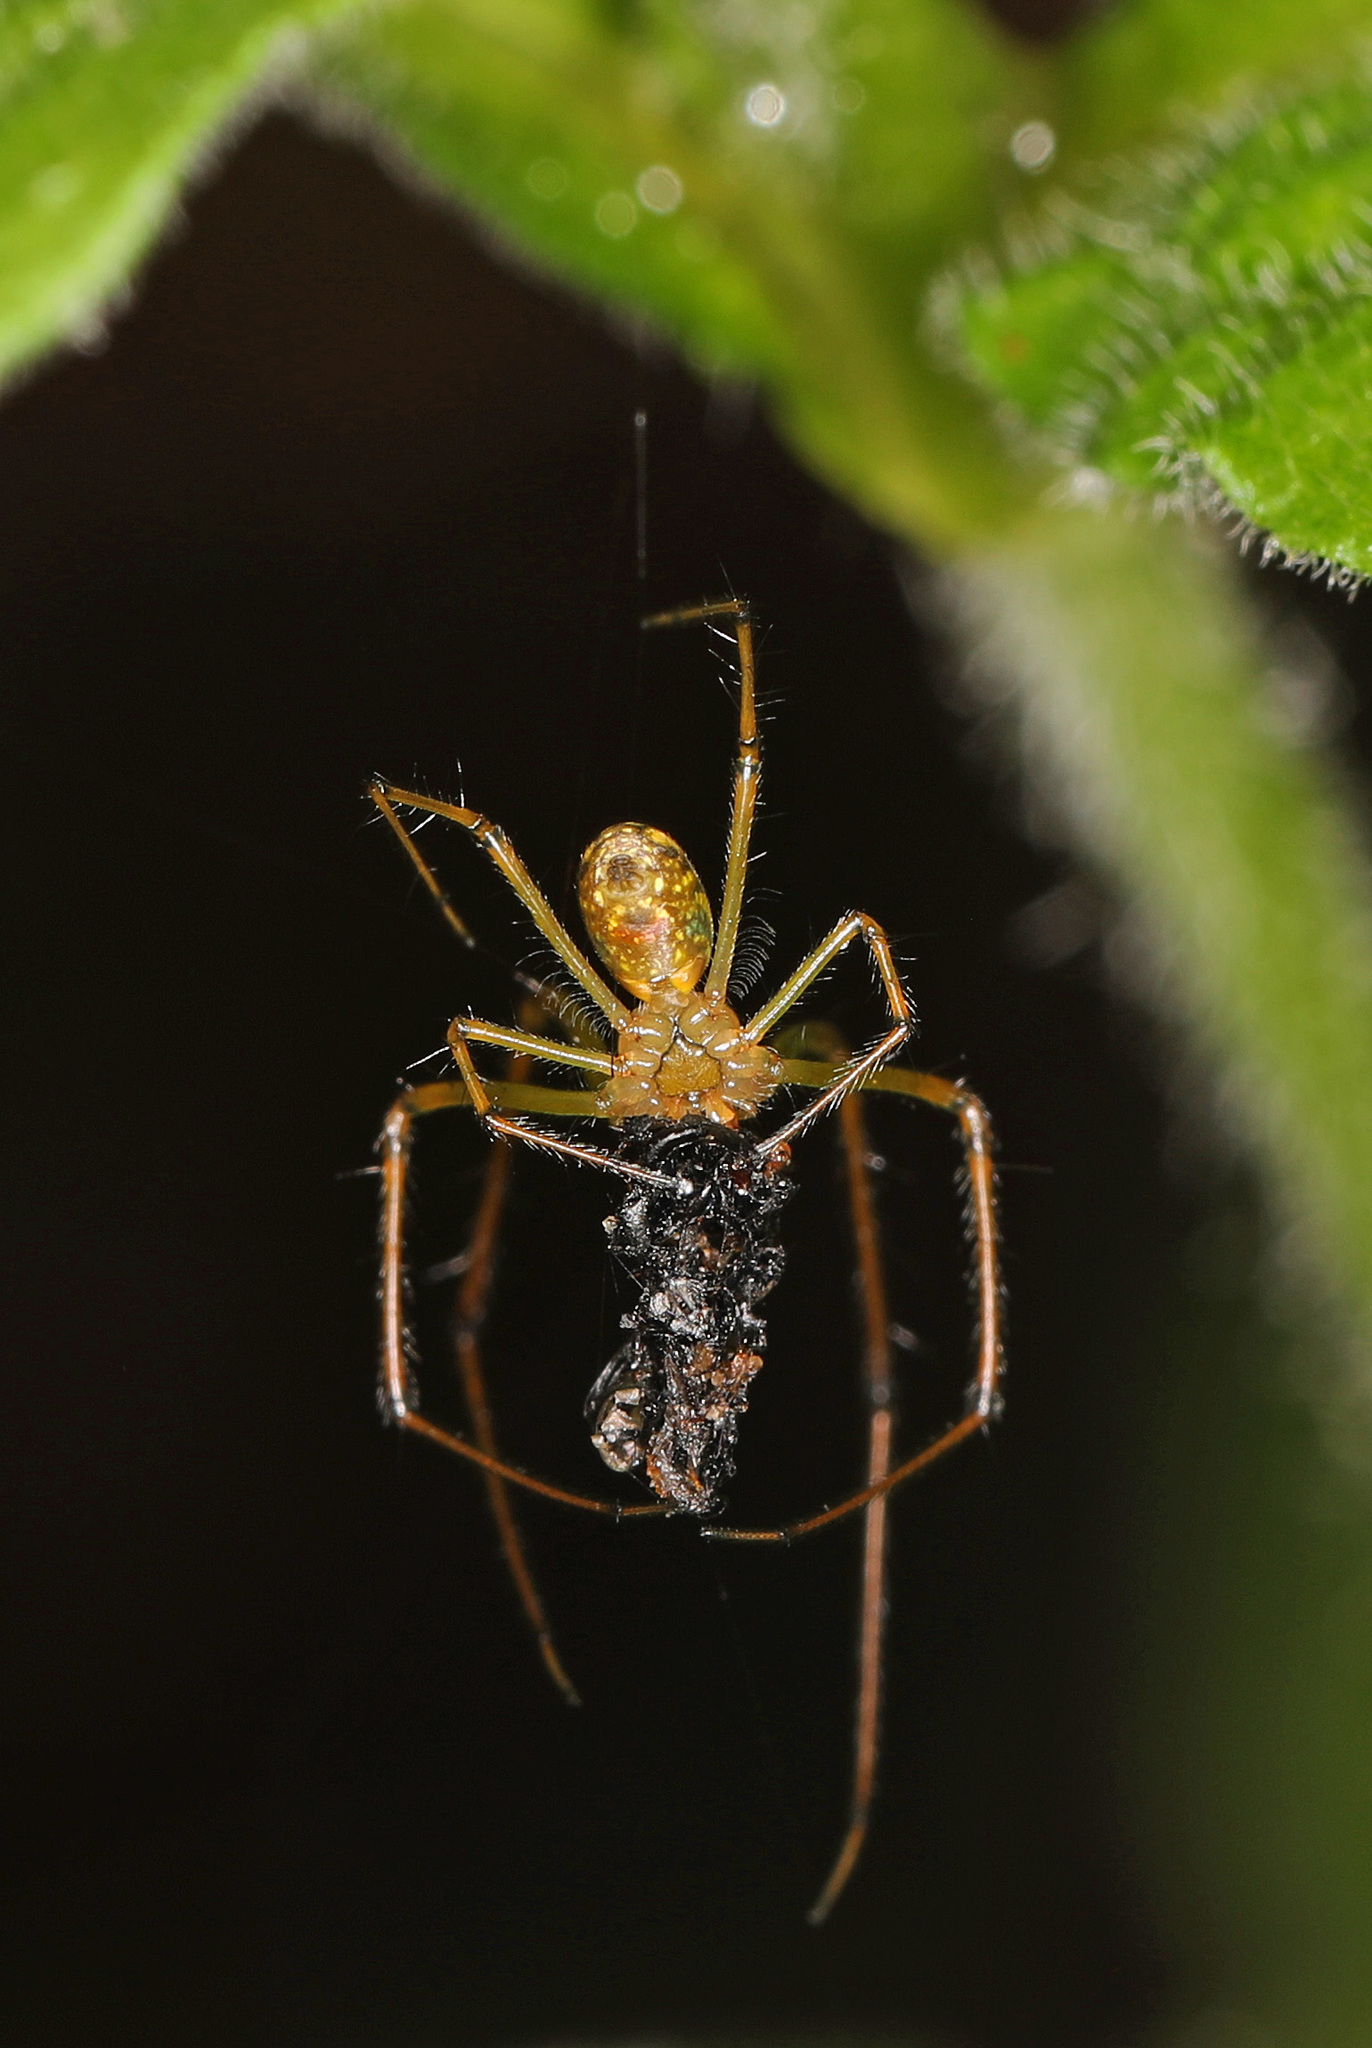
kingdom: Animalia
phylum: Arthropoda
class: Arachnida
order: Araneae
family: Tetragnathidae
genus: Leucauge
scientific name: Leucauge venusta
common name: Longjawed orb weavers
